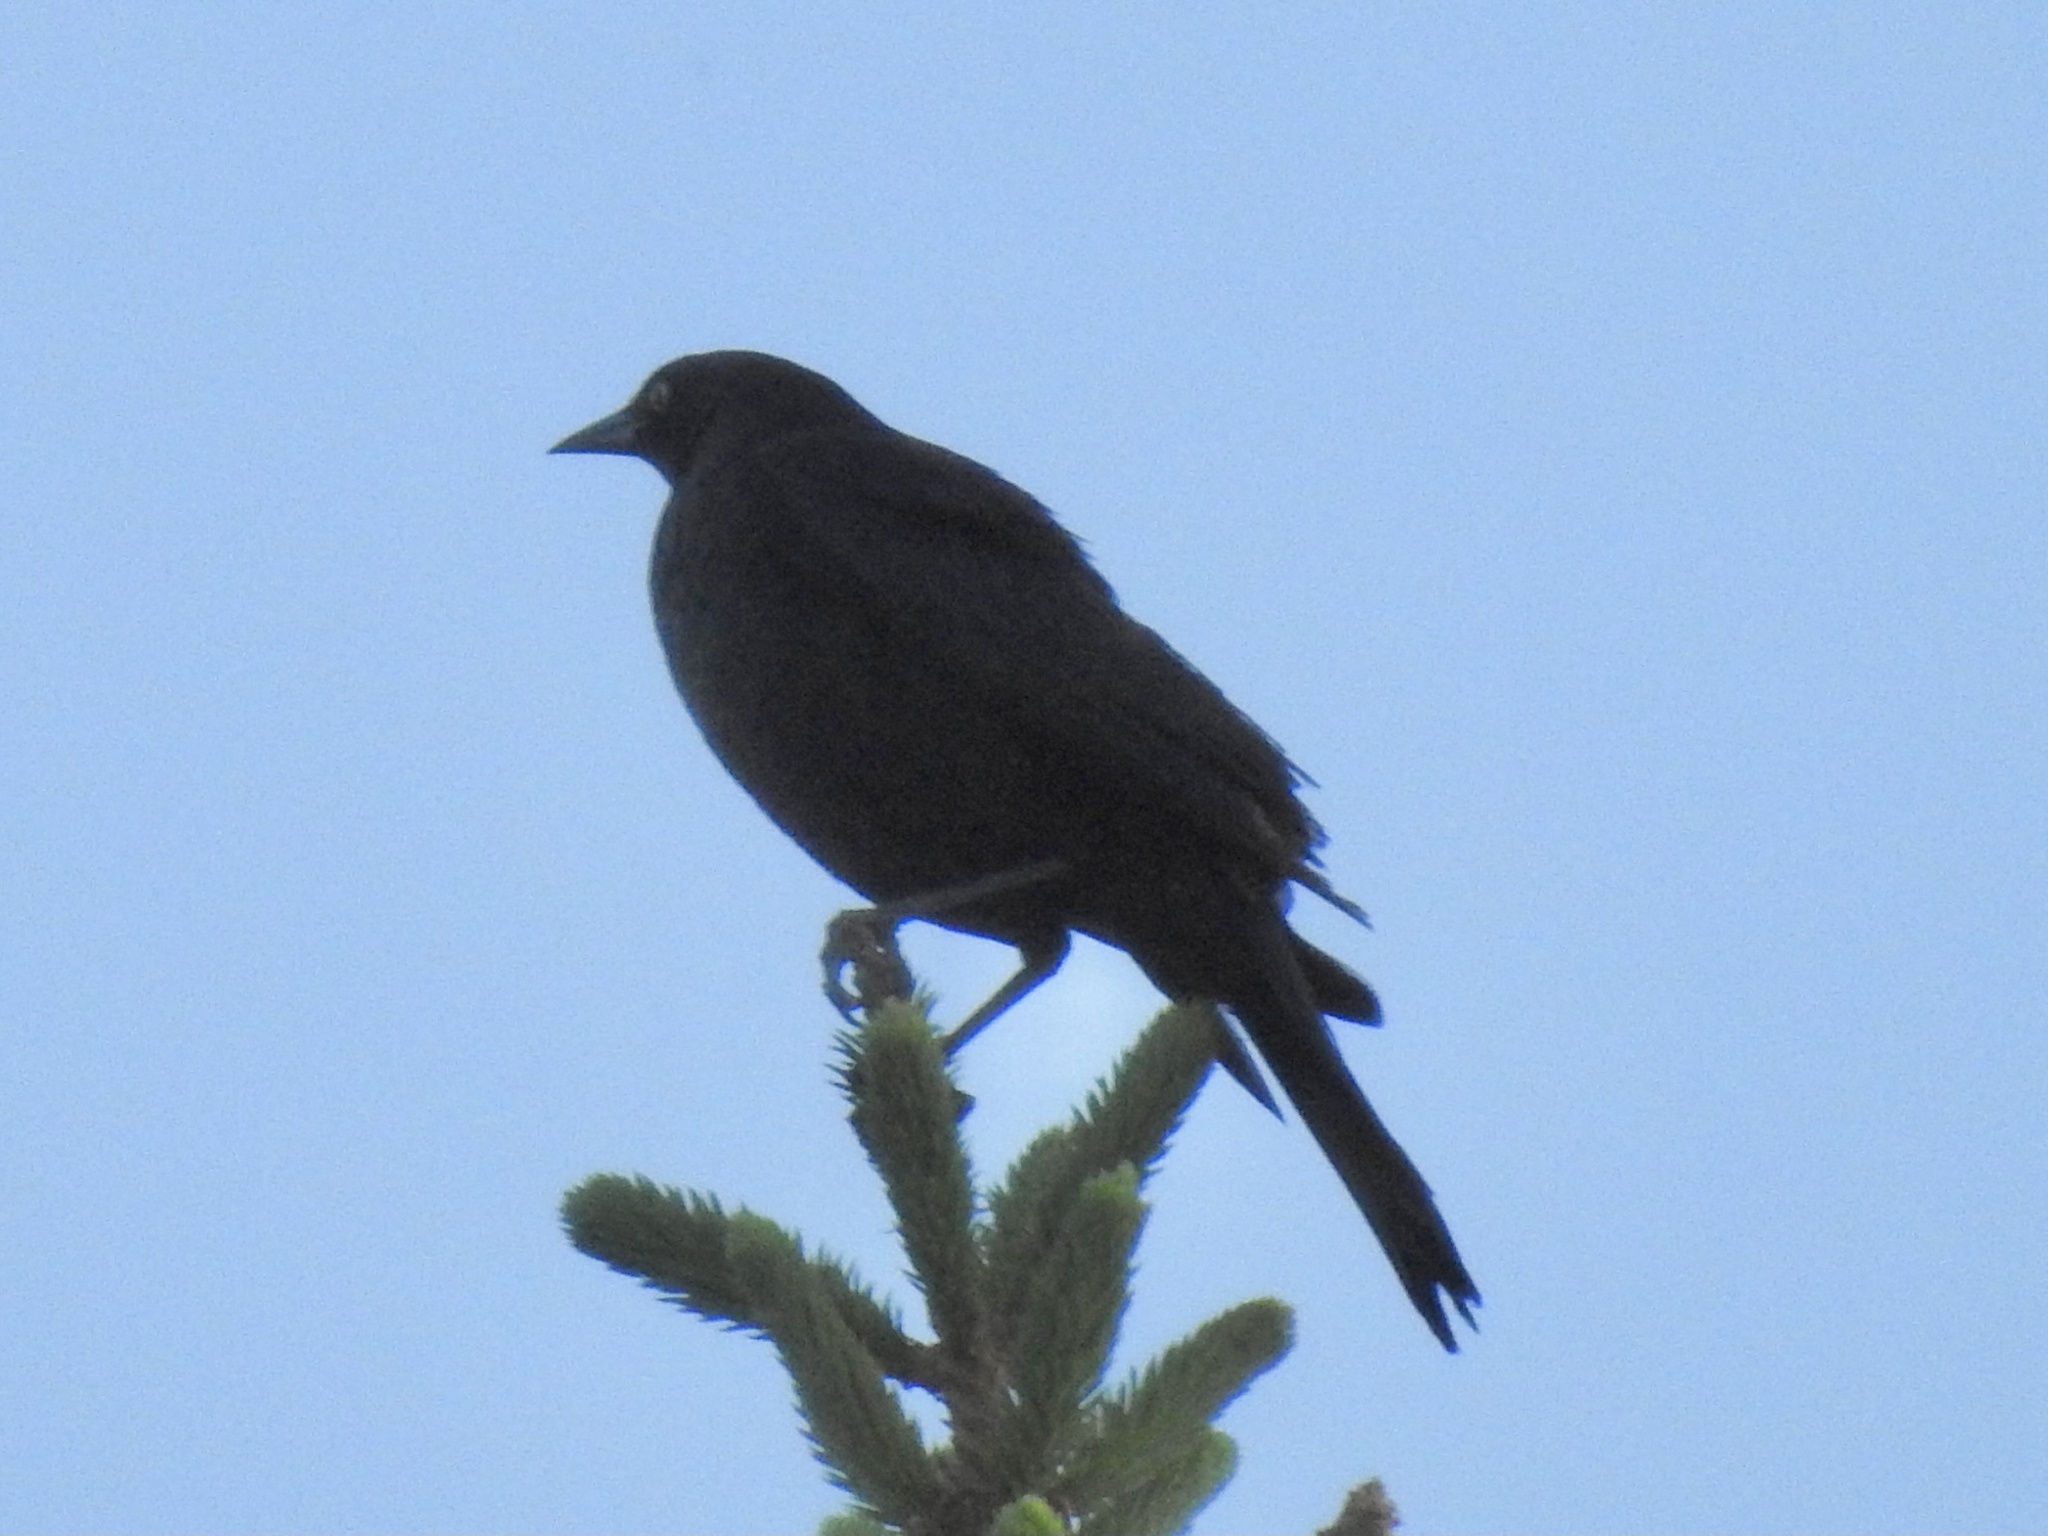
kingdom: Animalia
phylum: Chordata
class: Aves
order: Passeriformes
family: Icteridae
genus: Euphagus
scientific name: Euphagus cyanocephalus
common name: Brewer's blackbird
